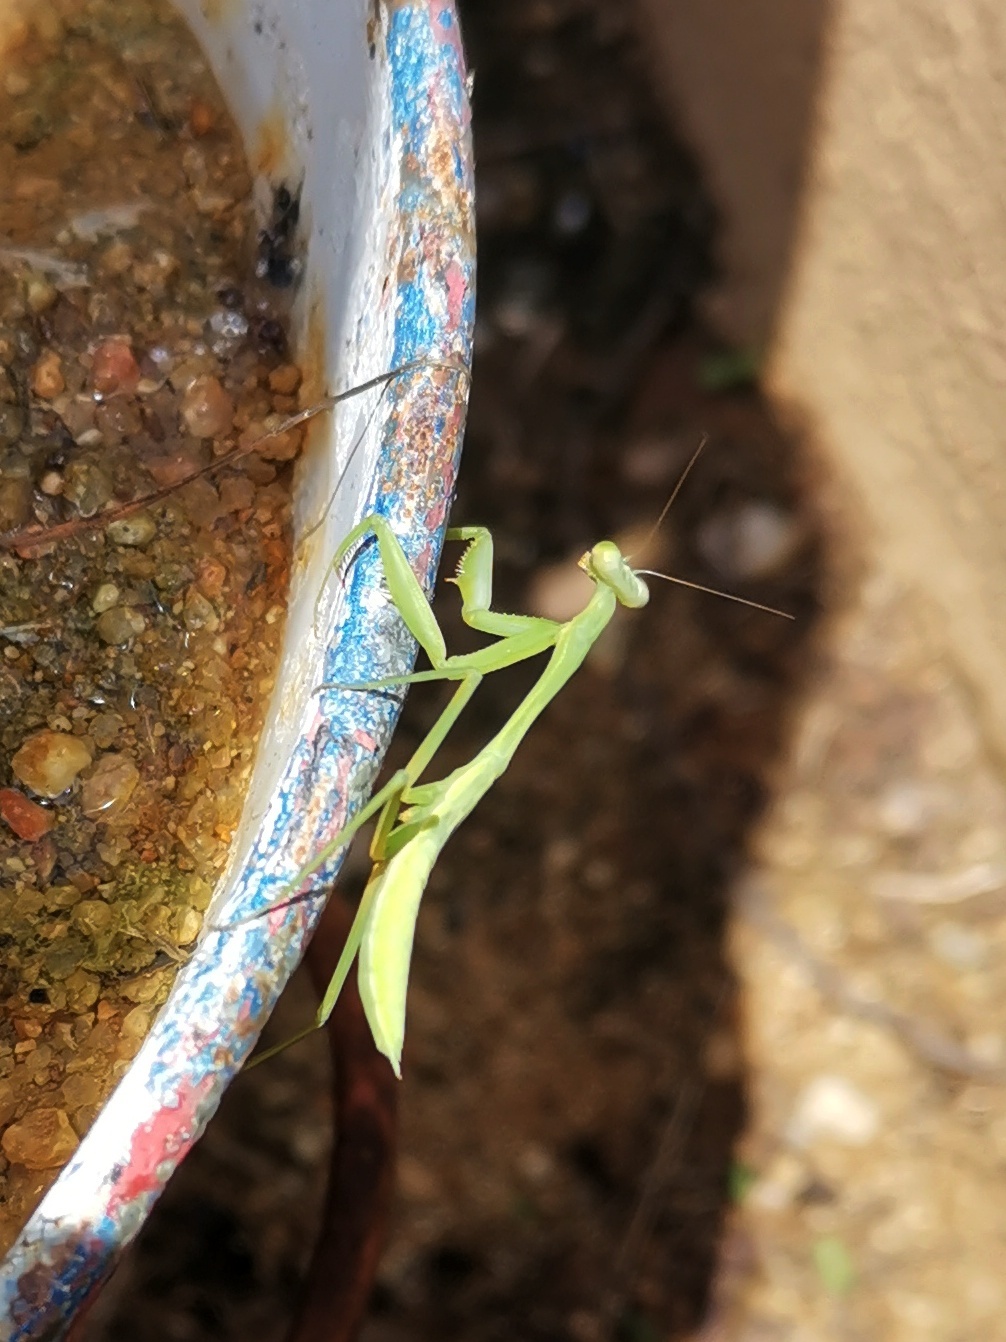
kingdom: Animalia
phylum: Arthropoda
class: Insecta
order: Mantodea
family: Mantidae
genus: Hierodula
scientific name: Hierodula membranacea
